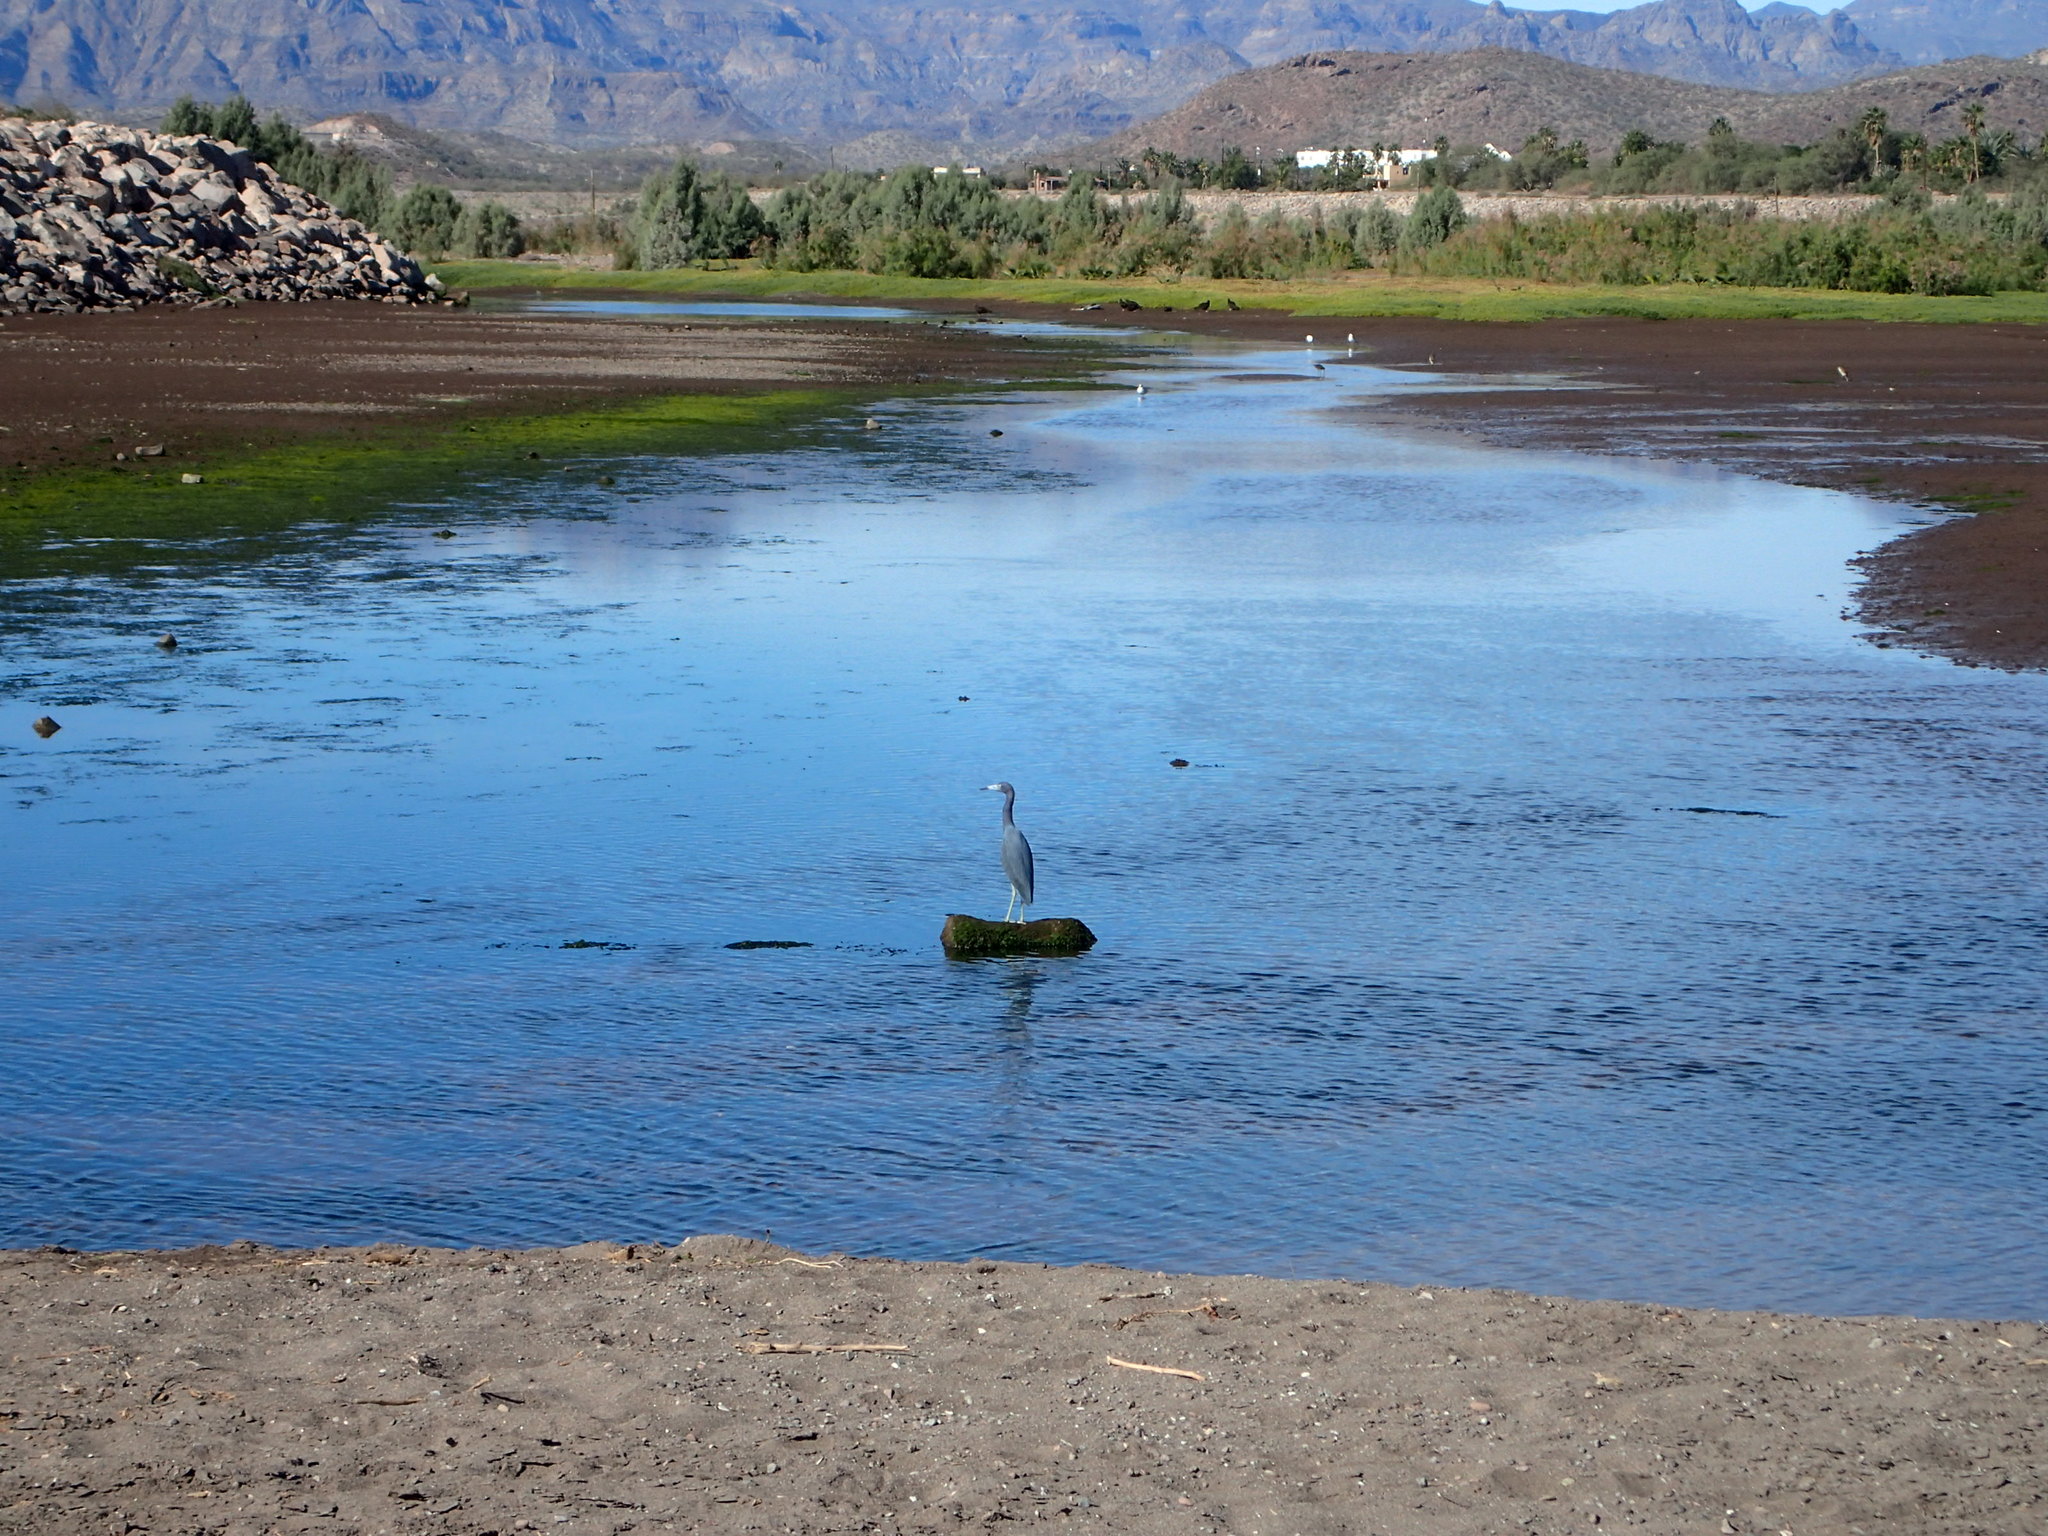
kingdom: Animalia
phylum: Chordata
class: Aves
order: Pelecaniformes
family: Ardeidae
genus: Egretta
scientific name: Egretta caerulea
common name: Little blue heron
